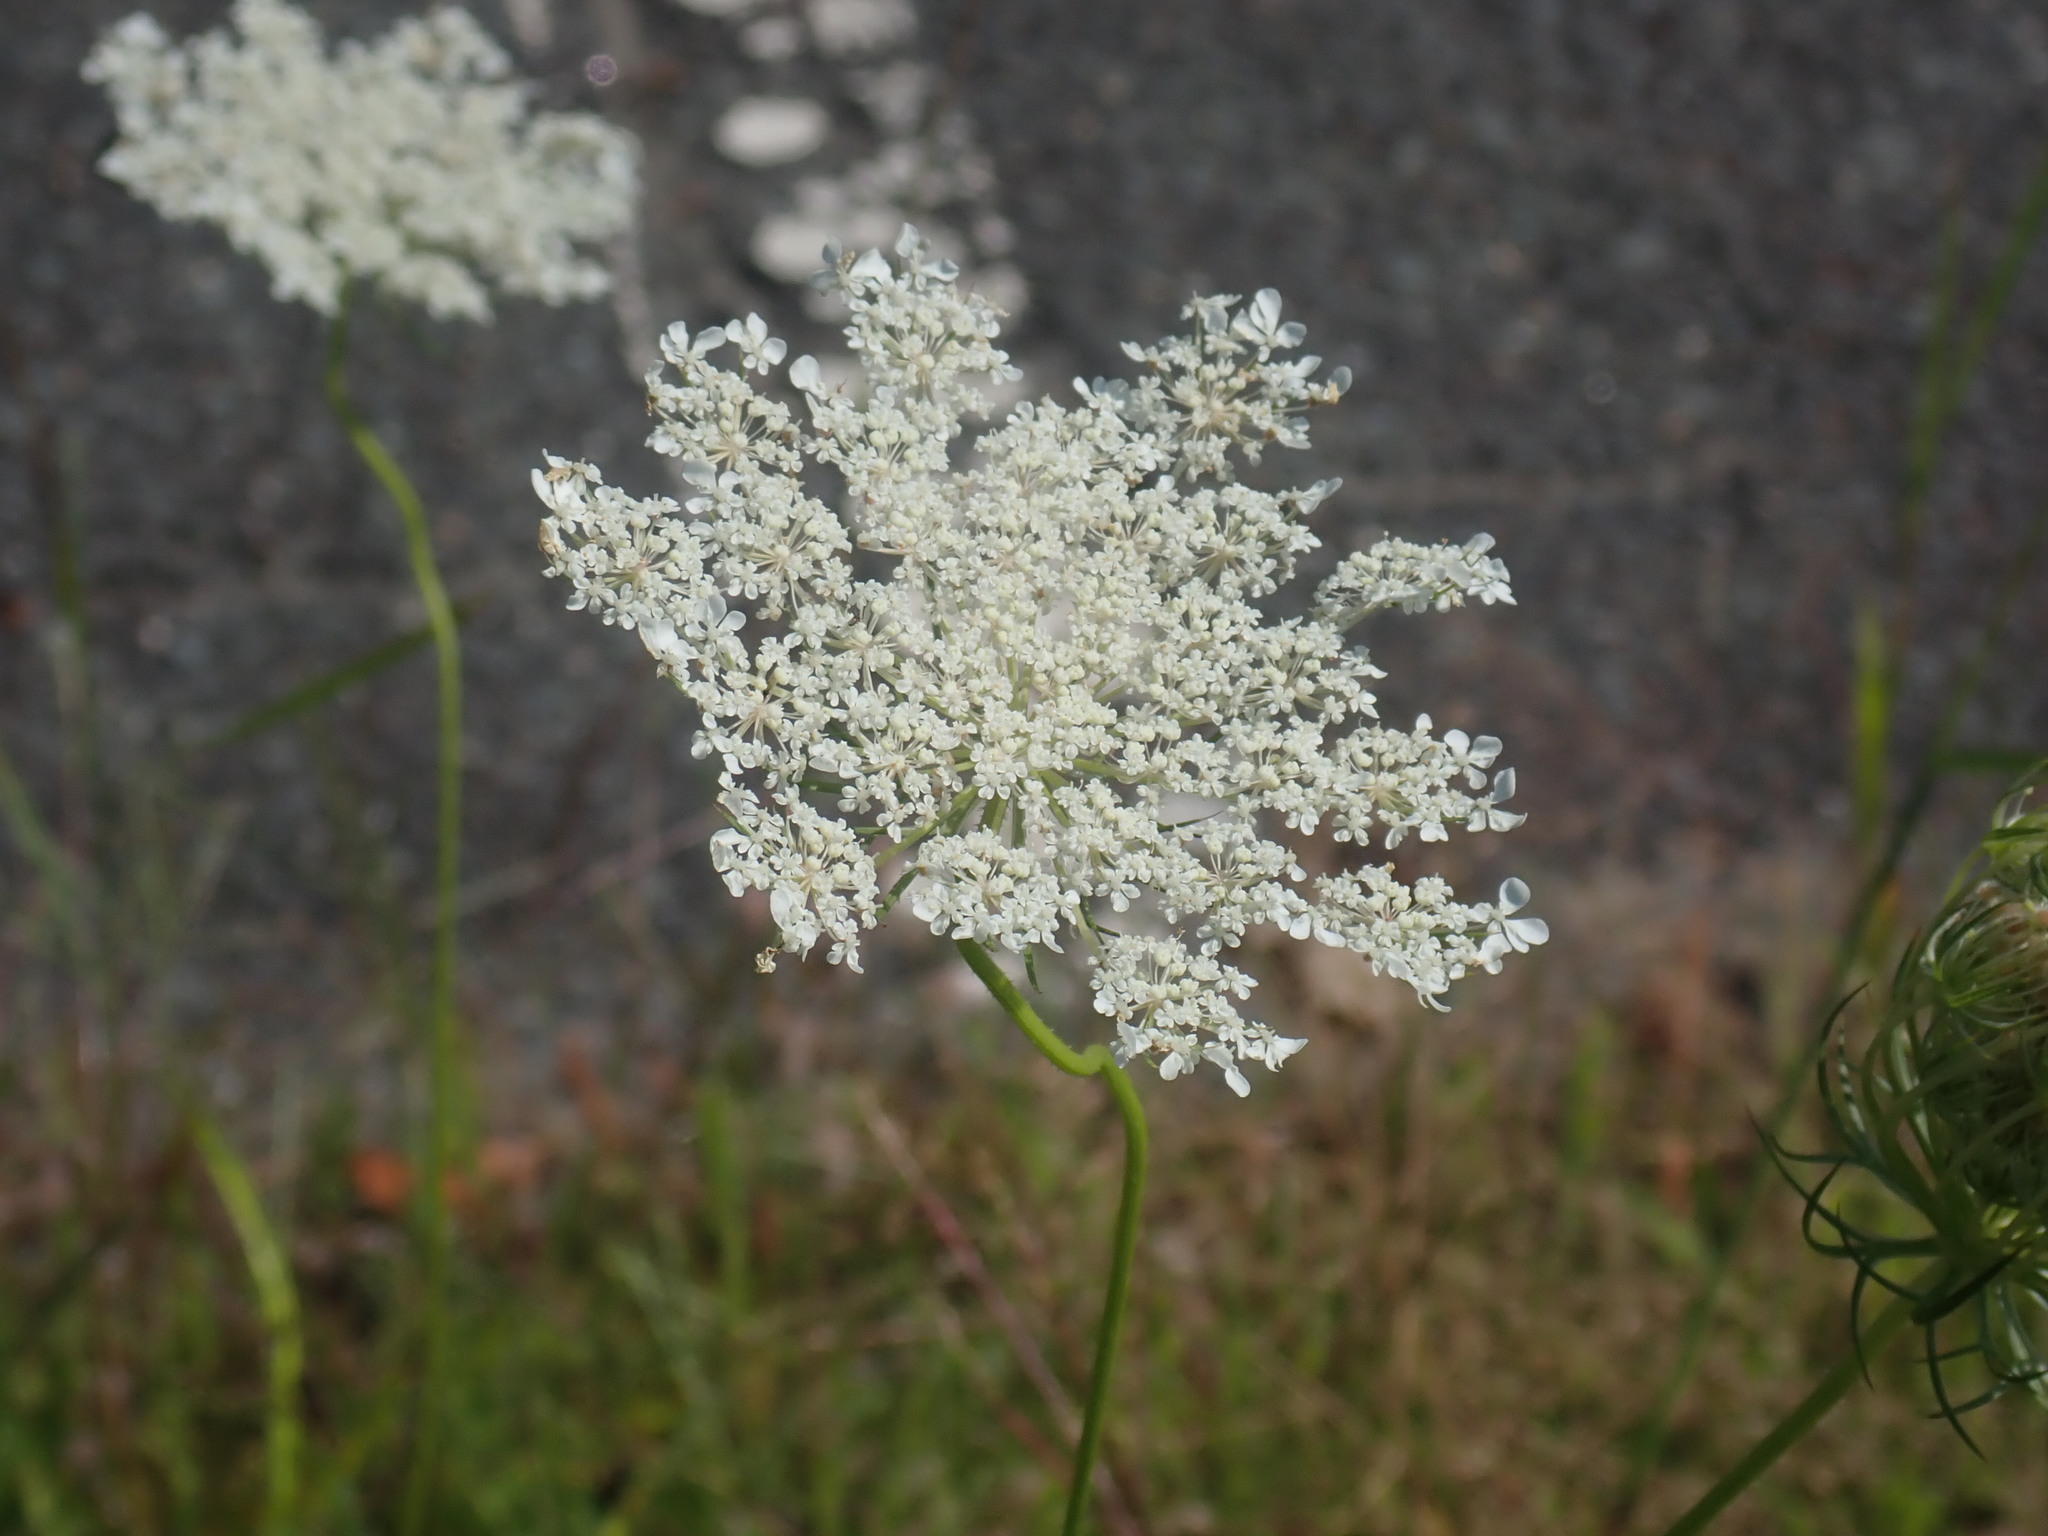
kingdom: Plantae
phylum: Tracheophyta
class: Magnoliopsida
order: Apiales
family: Apiaceae
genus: Daucus
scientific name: Daucus carota
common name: Wild carrot
